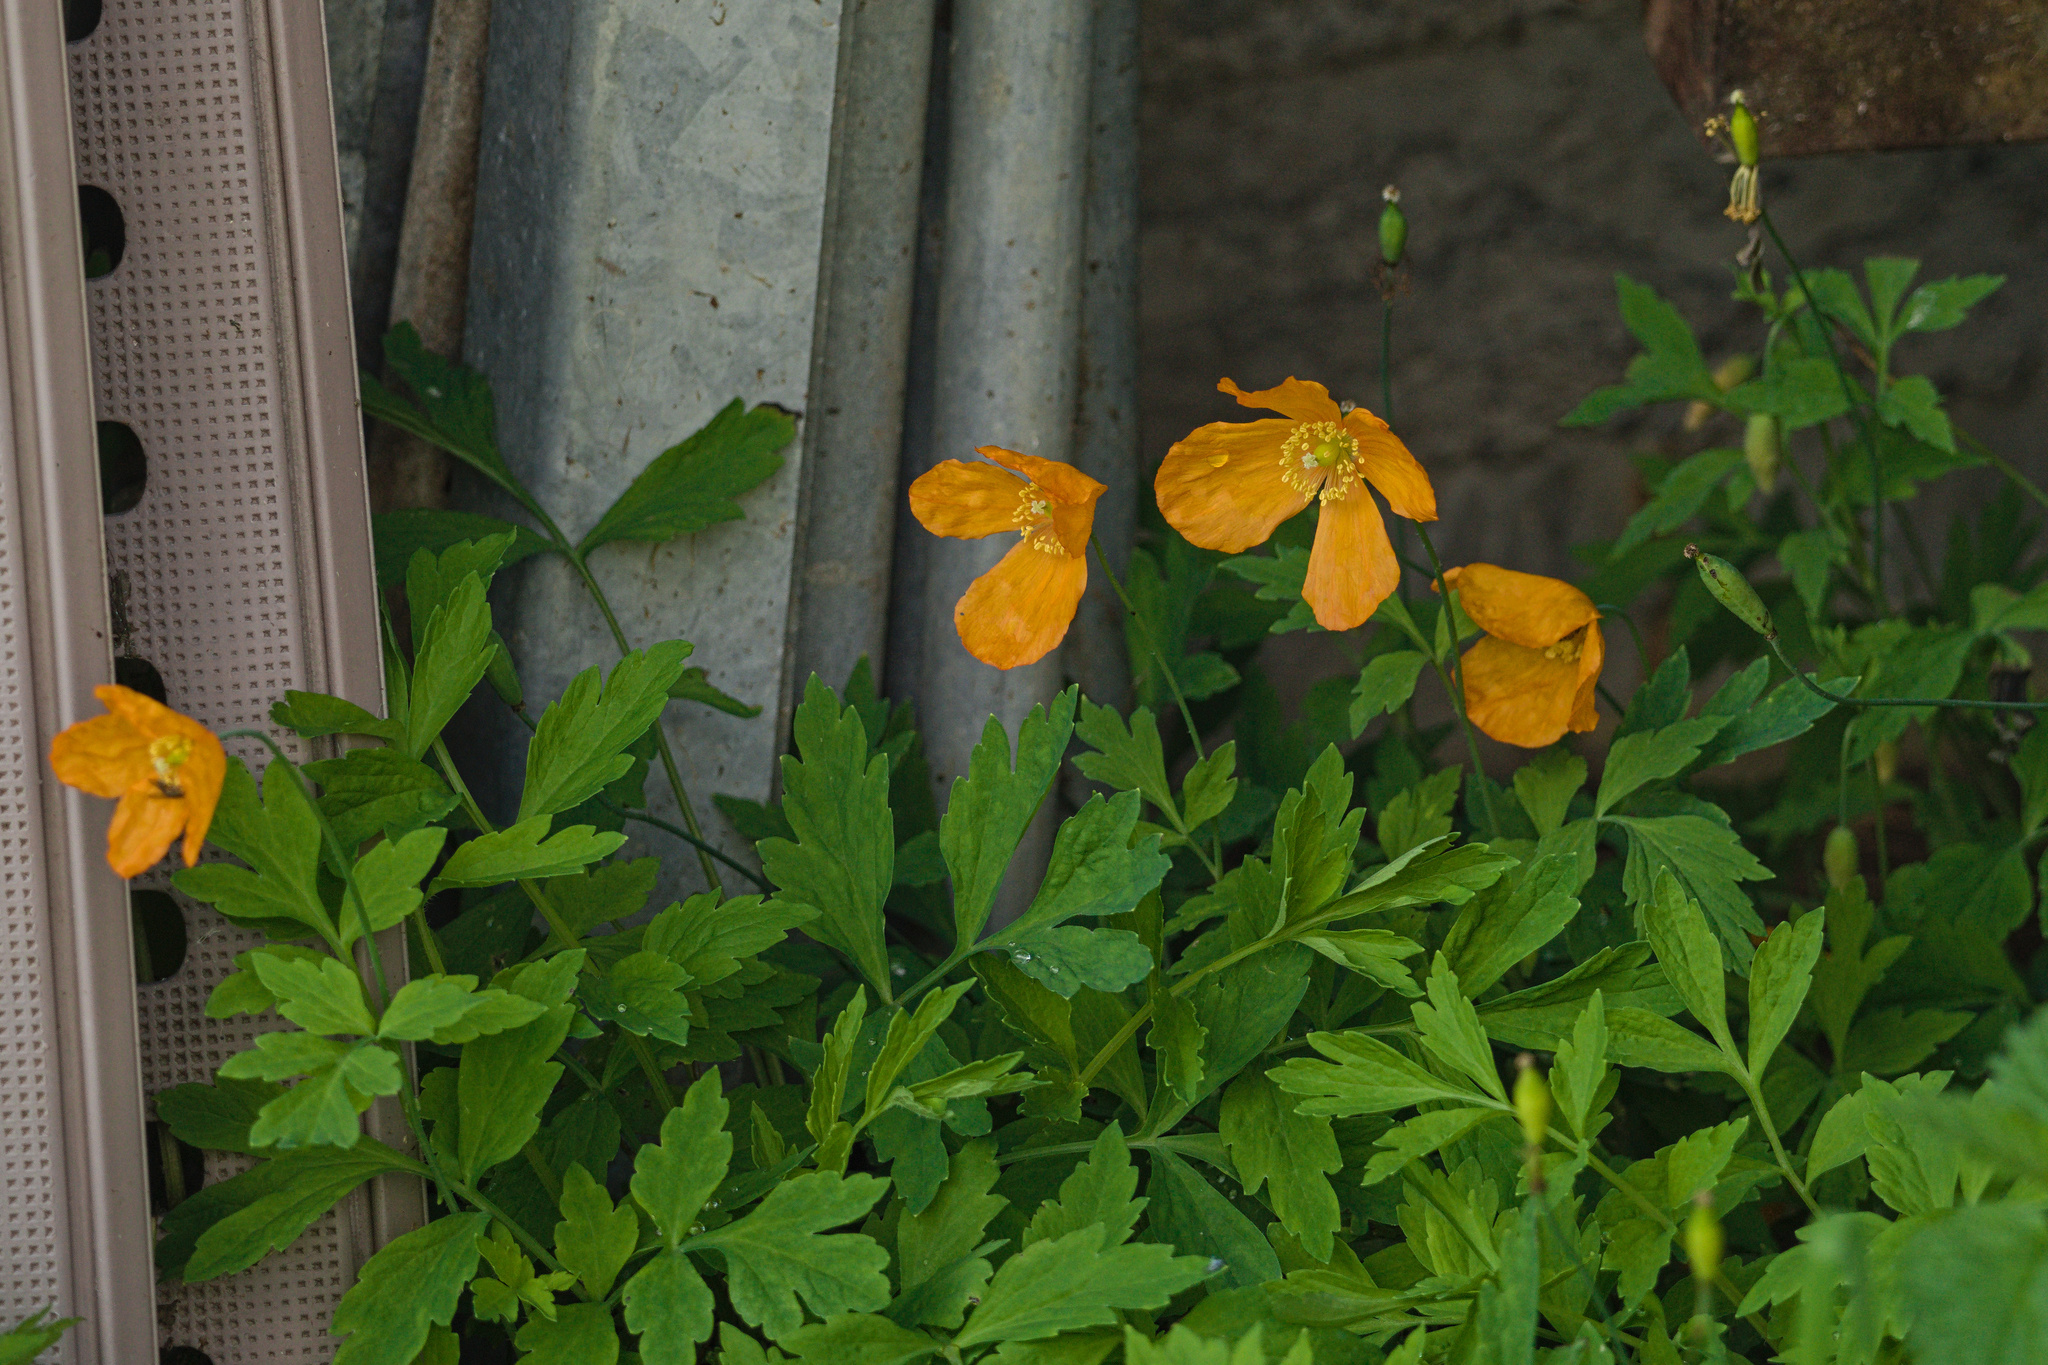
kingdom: Plantae
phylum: Tracheophyta
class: Magnoliopsida
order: Ranunculales
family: Papaveraceae
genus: Papaver
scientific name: Papaver cambricum
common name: Poppy
